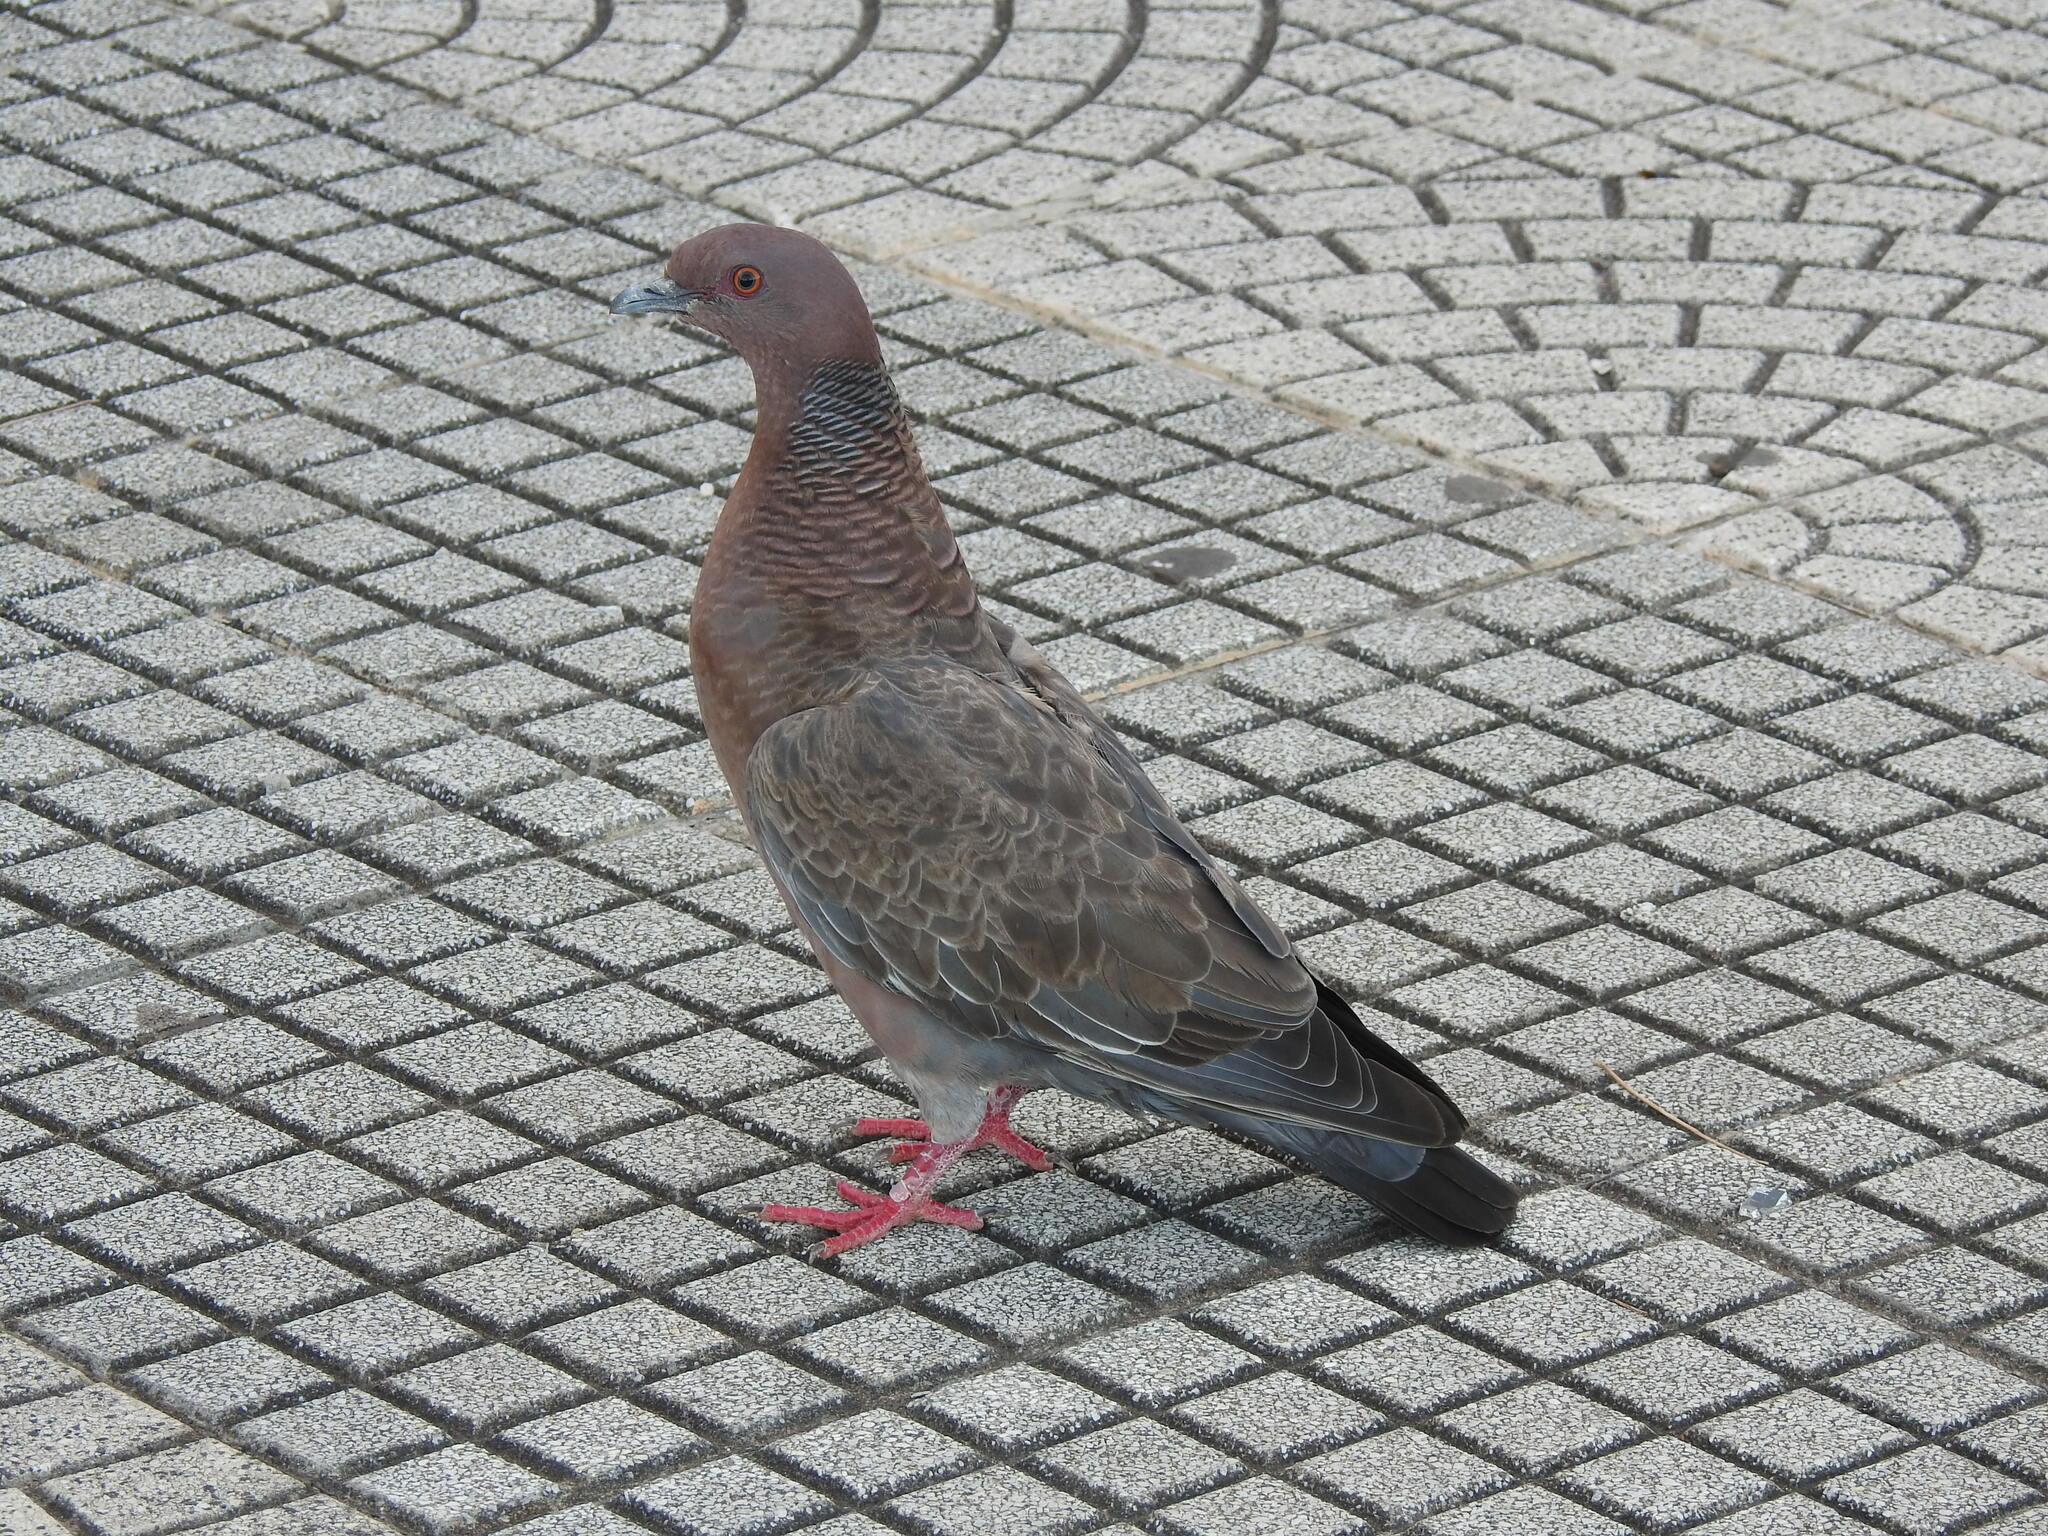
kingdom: Animalia
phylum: Chordata
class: Aves
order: Columbiformes
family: Columbidae
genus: Patagioenas
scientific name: Patagioenas picazuro
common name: Picazuro pigeon
